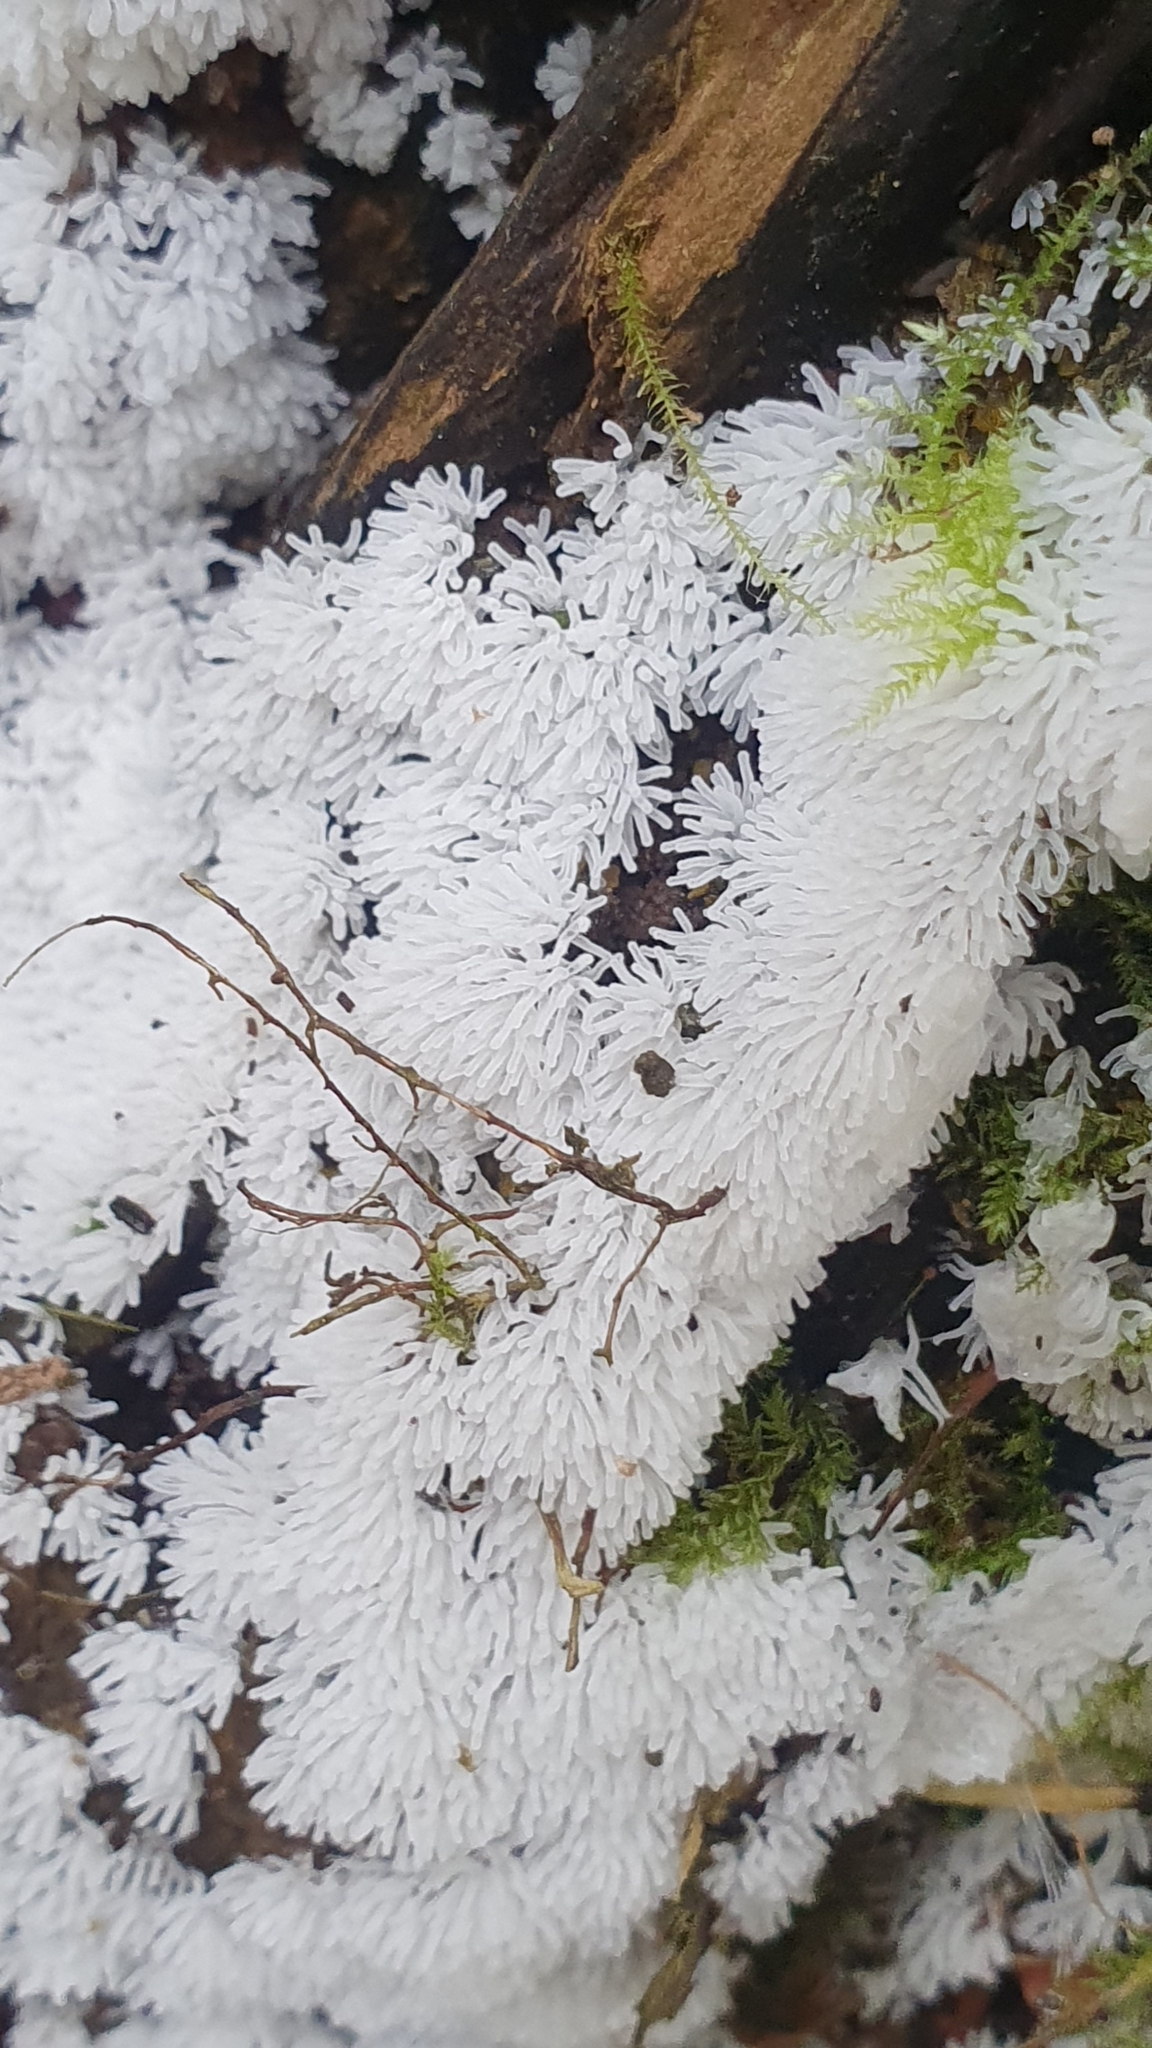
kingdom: Protozoa
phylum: Mycetozoa
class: Protosteliomycetes
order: Ceratiomyxales
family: Ceratiomyxaceae
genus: Ceratiomyxa
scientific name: Ceratiomyxa fruticulosa
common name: Honeycomb coral slime mold
